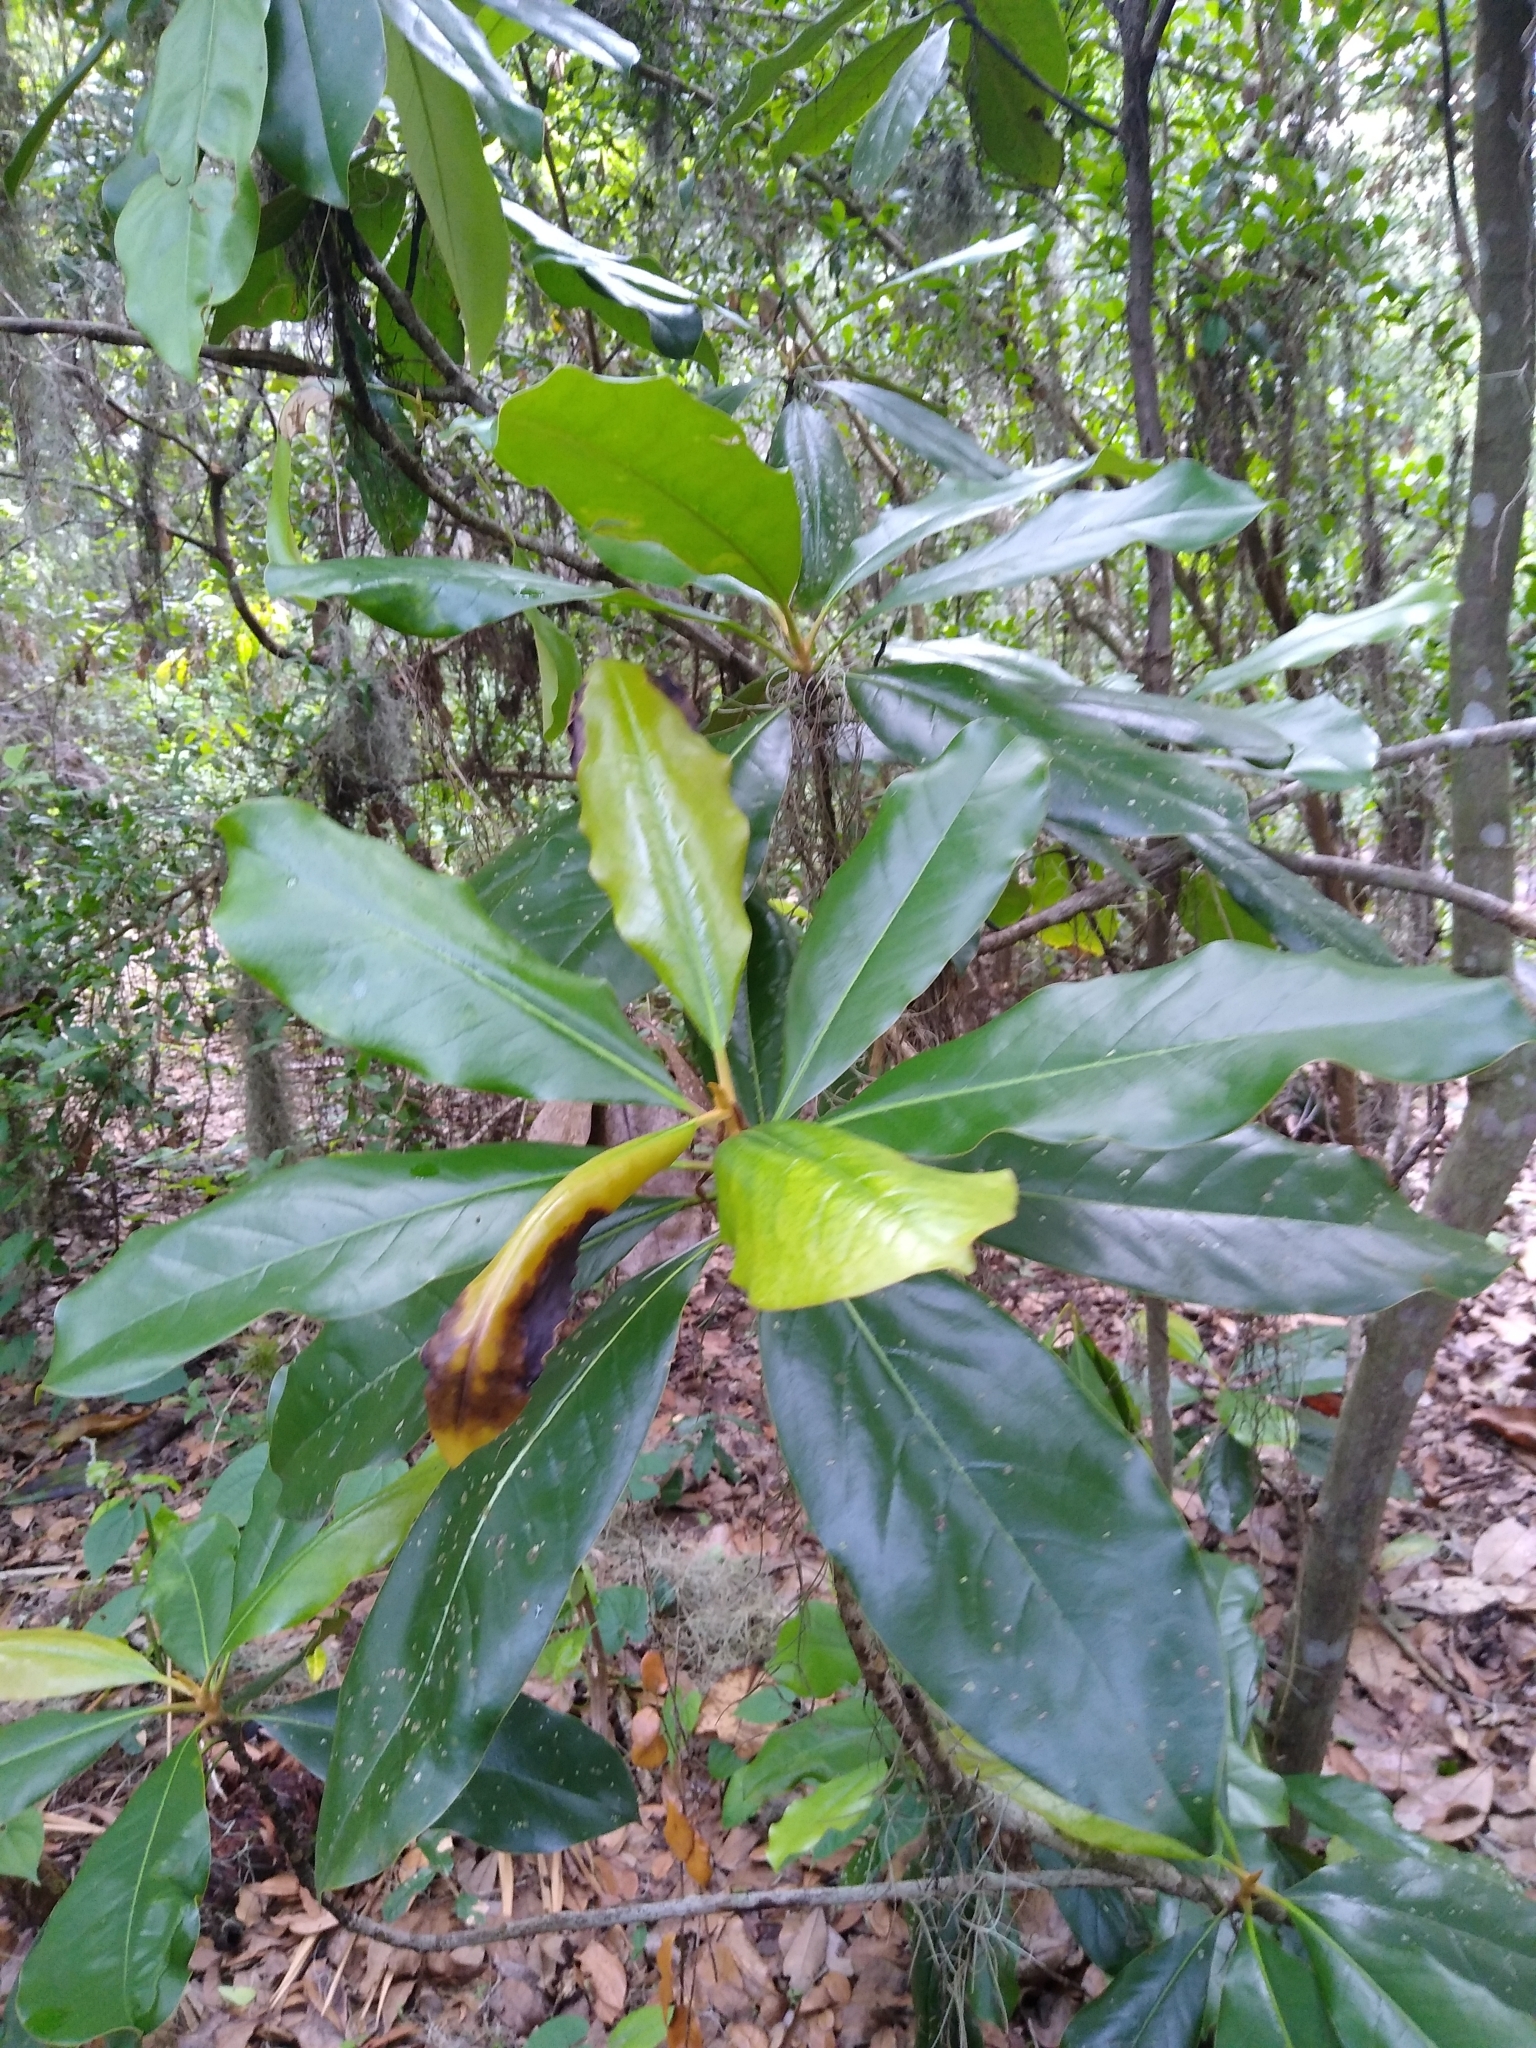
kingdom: Plantae
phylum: Tracheophyta
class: Magnoliopsida
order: Magnoliales
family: Magnoliaceae
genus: Magnolia
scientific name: Magnolia grandiflora
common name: Southern magnolia
